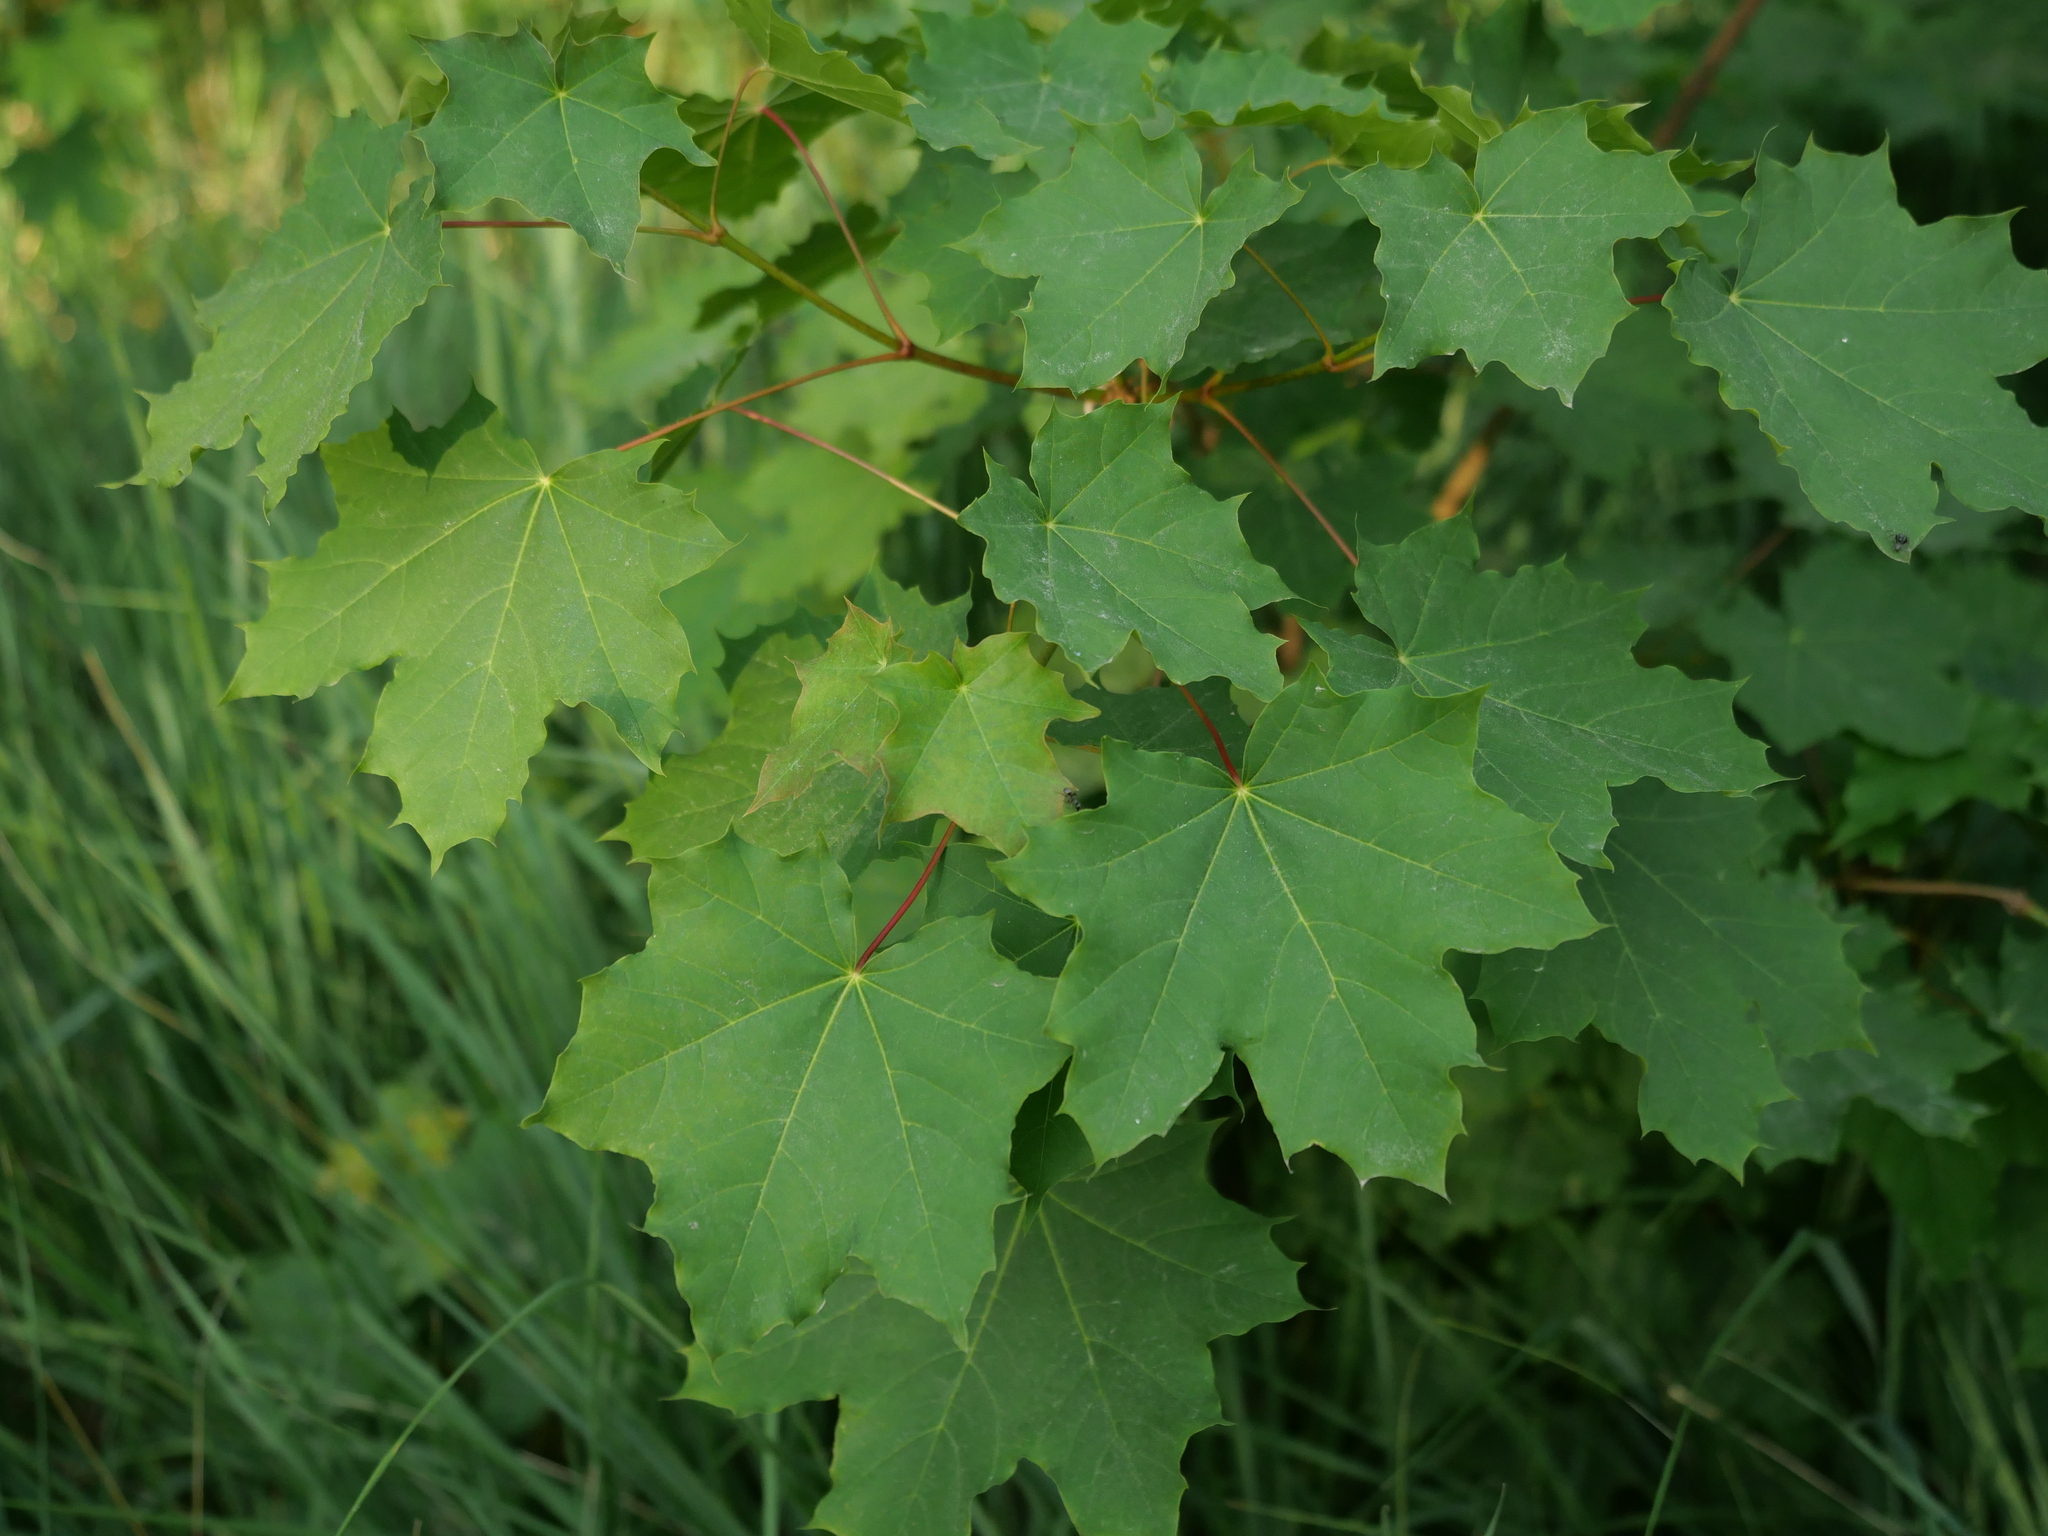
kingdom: Plantae
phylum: Tracheophyta
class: Magnoliopsida
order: Sapindales
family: Sapindaceae
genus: Acer
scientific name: Acer platanoides
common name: Norway maple
